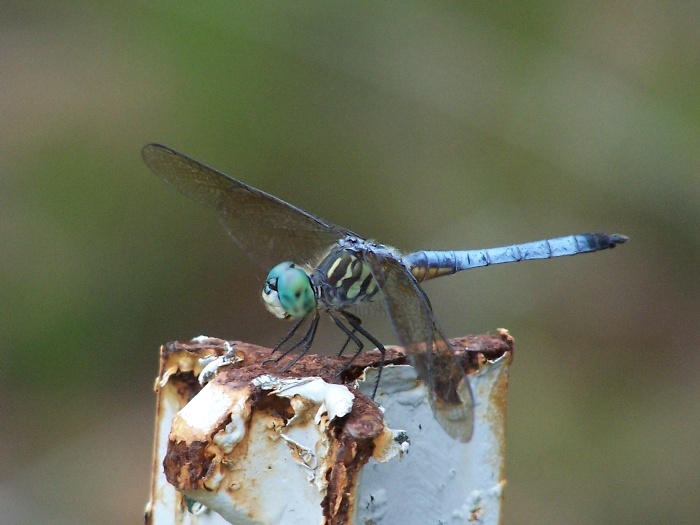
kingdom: Animalia
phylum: Arthropoda
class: Insecta
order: Odonata
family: Libellulidae
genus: Pachydiplax
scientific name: Pachydiplax longipennis
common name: Blue dasher
